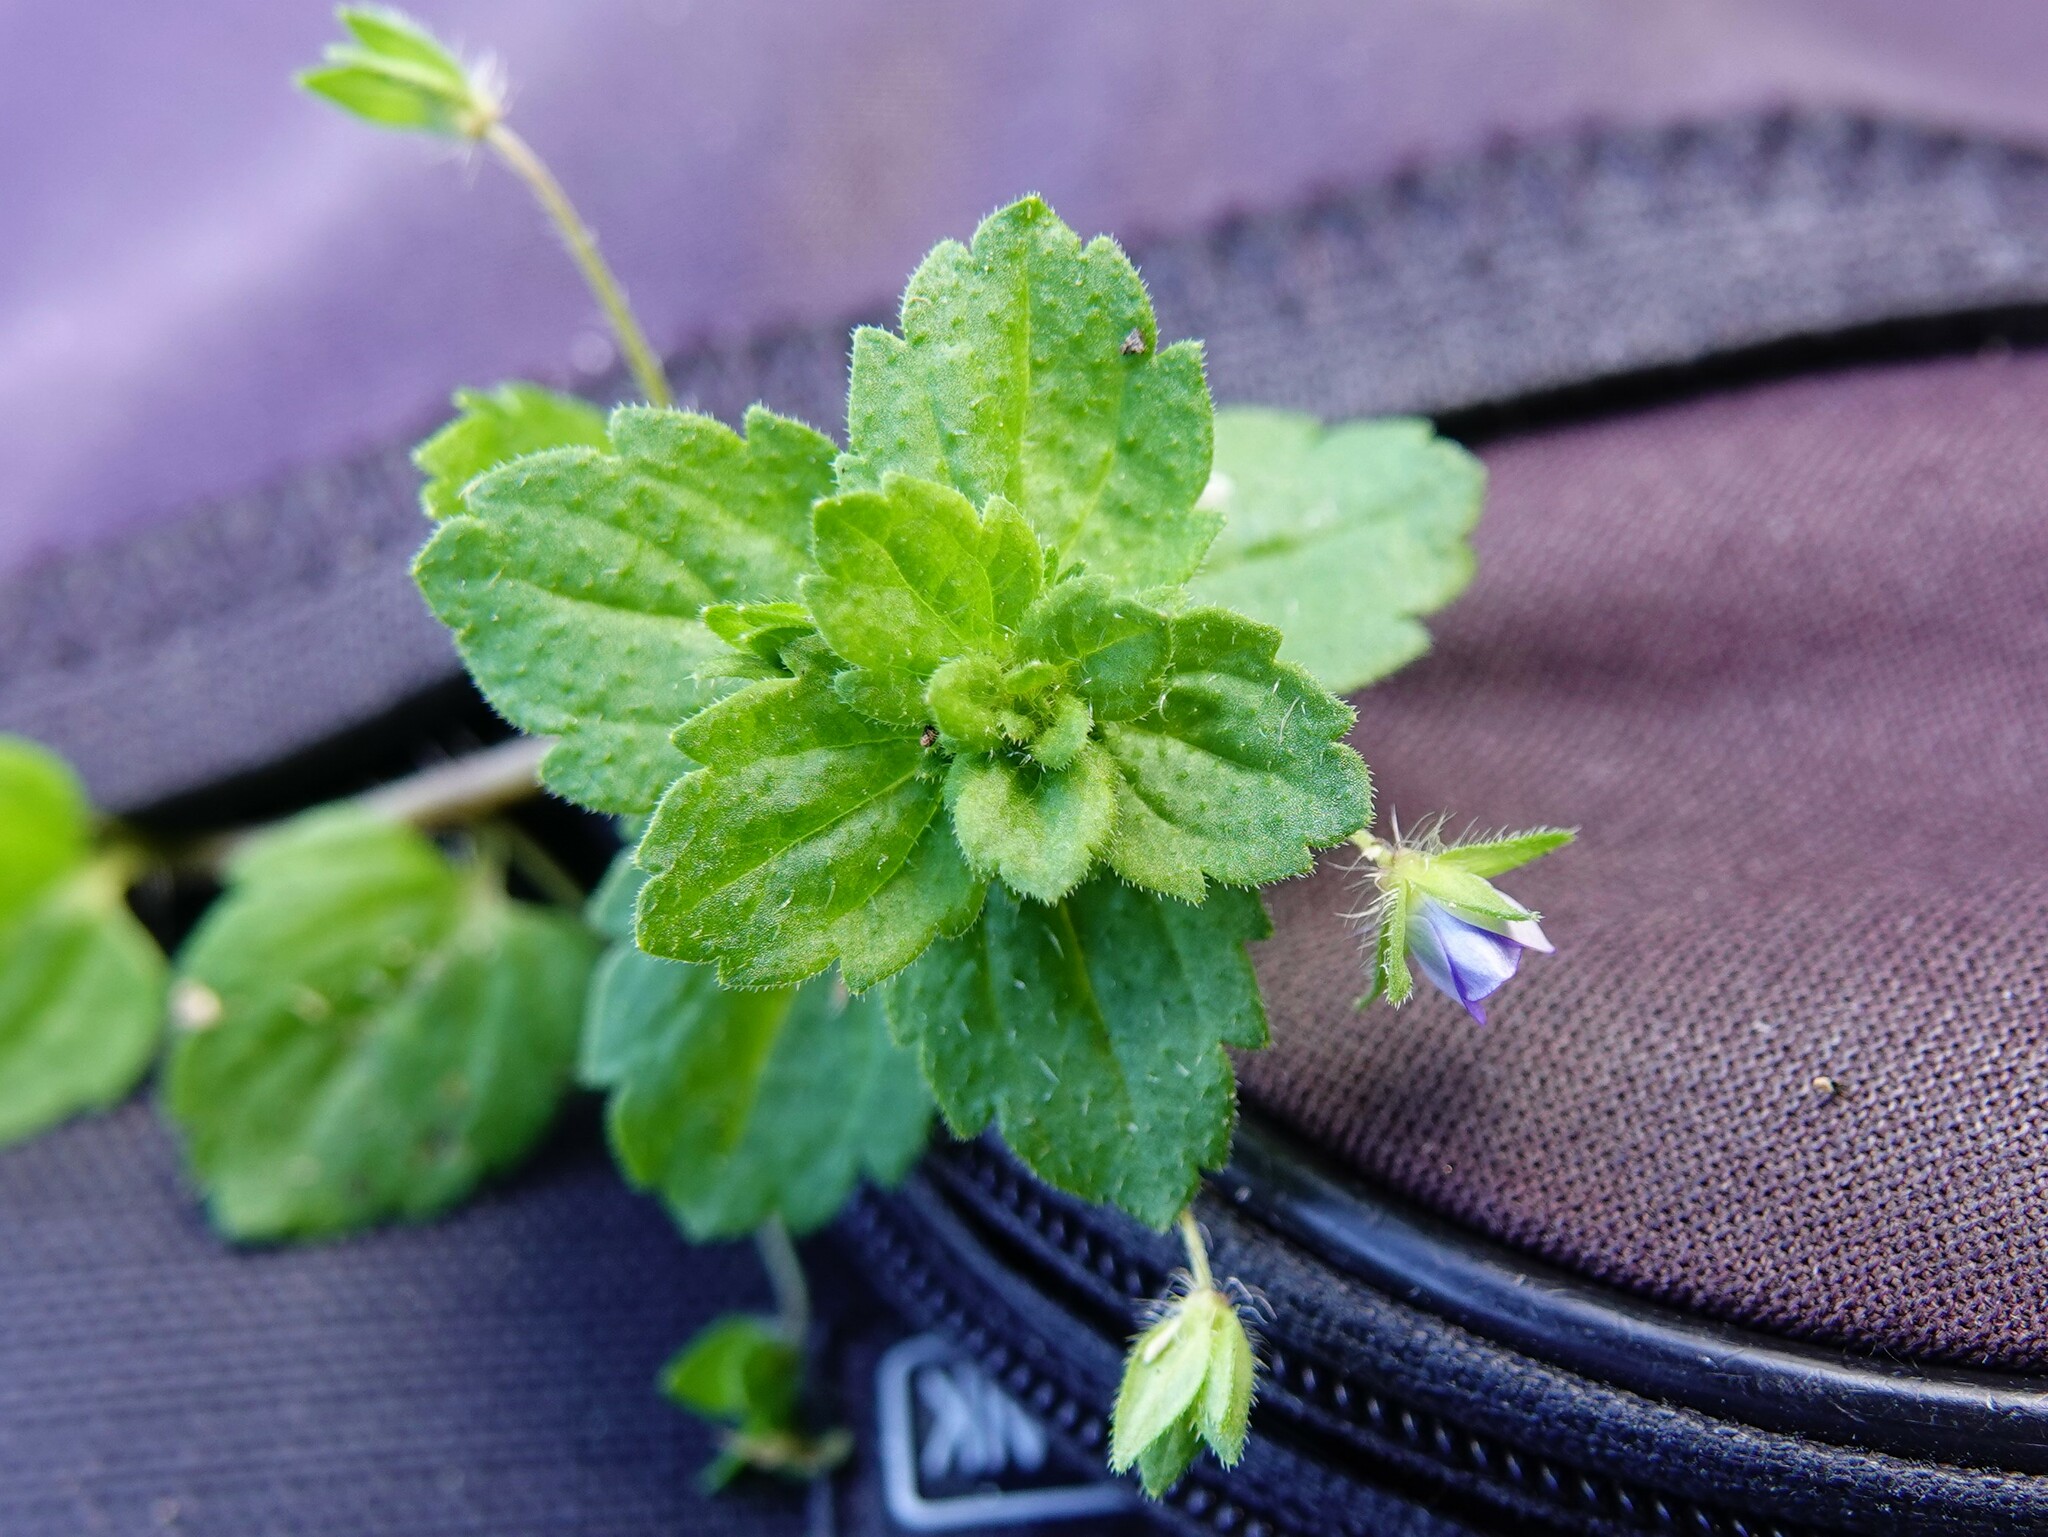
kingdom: Plantae
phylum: Tracheophyta
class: Magnoliopsida
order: Lamiales
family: Plantaginaceae
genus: Veronica
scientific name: Veronica persica
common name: Common field-speedwell
